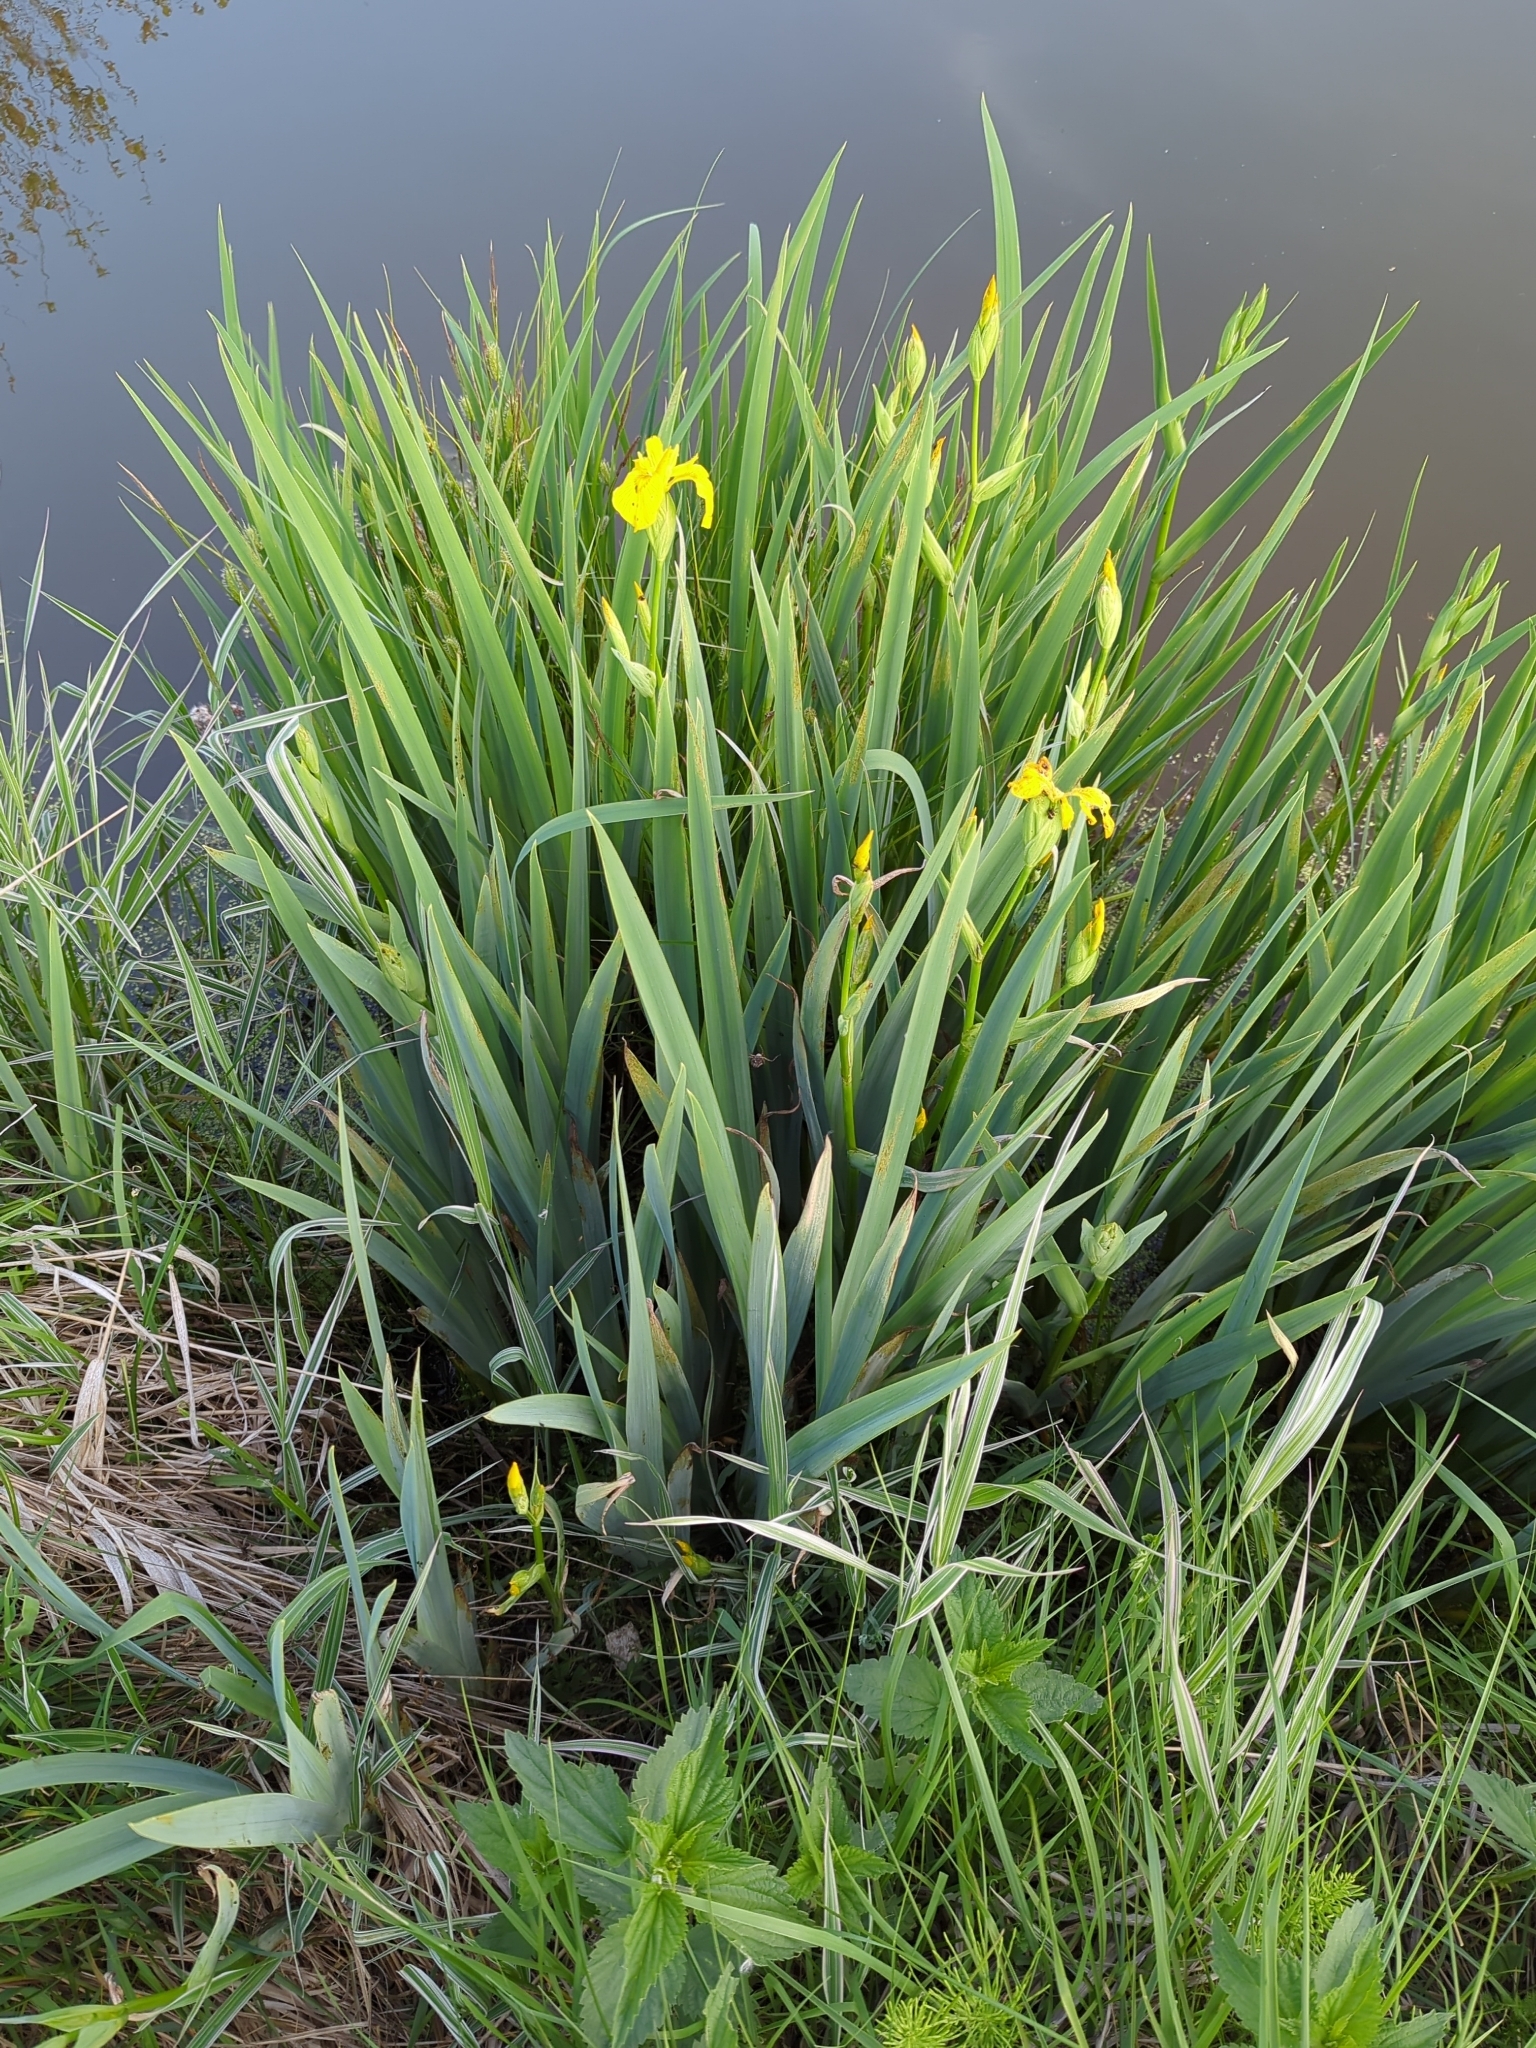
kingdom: Plantae
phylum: Tracheophyta
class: Liliopsida
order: Asparagales
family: Iridaceae
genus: Iris
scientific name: Iris pseudacorus
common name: Yellow flag
